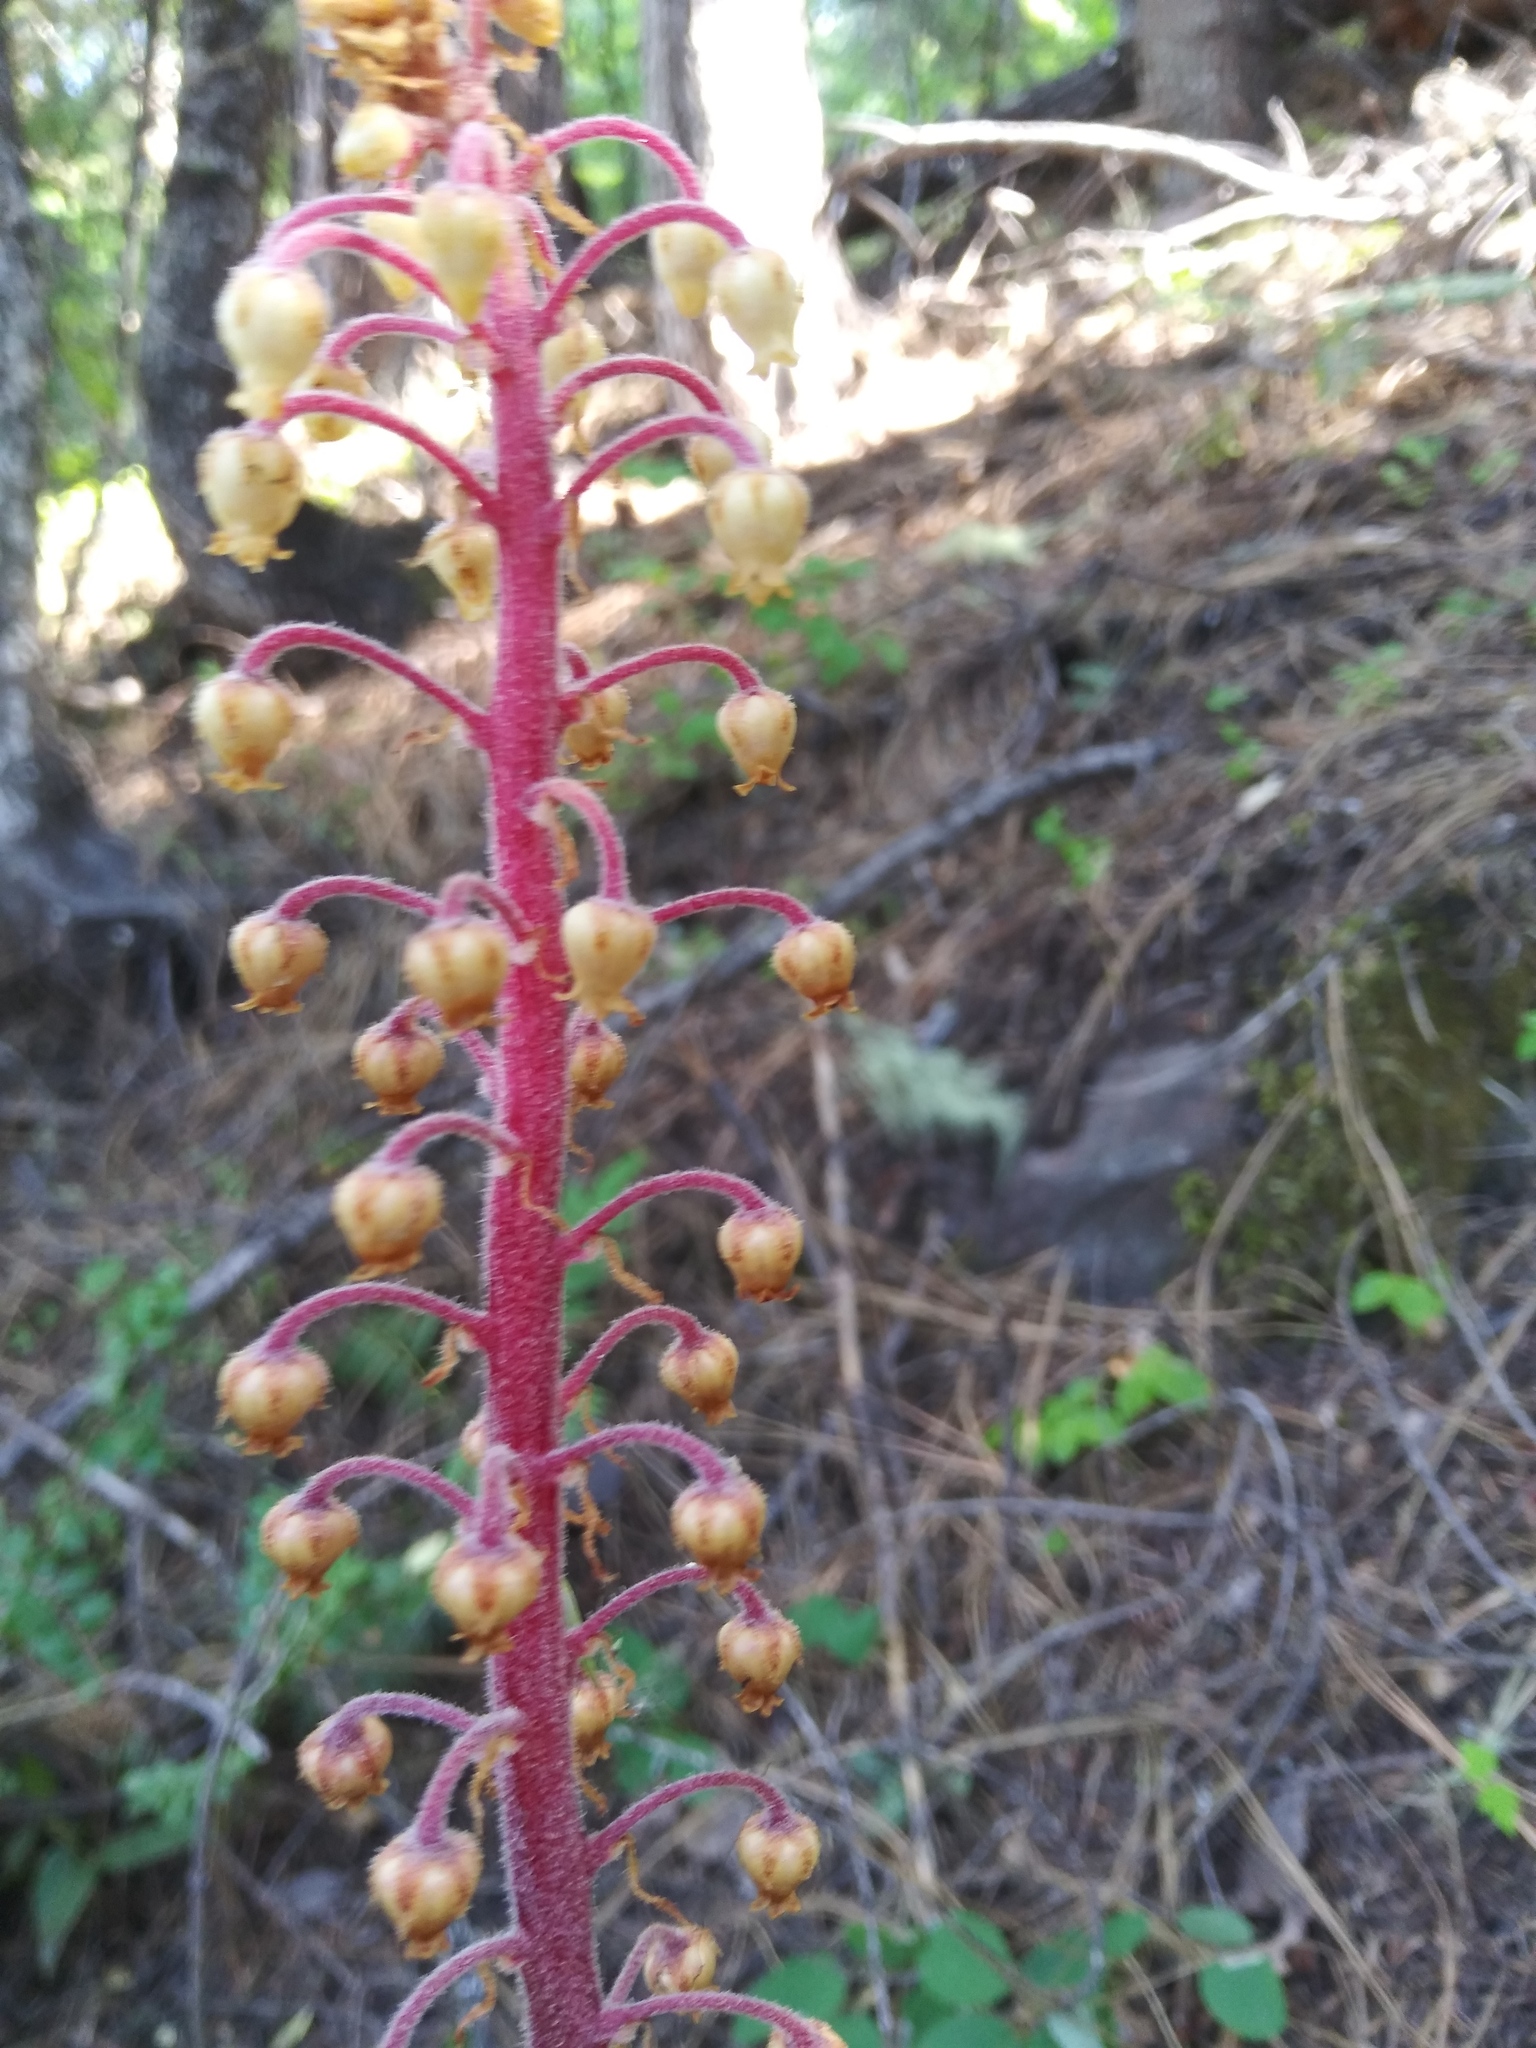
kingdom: Plantae
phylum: Tracheophyta
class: Magnoliopsida
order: Ericales
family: Ericaceae
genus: Pterospora
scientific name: Pterospora andromedea
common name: Giant bird's-nest
